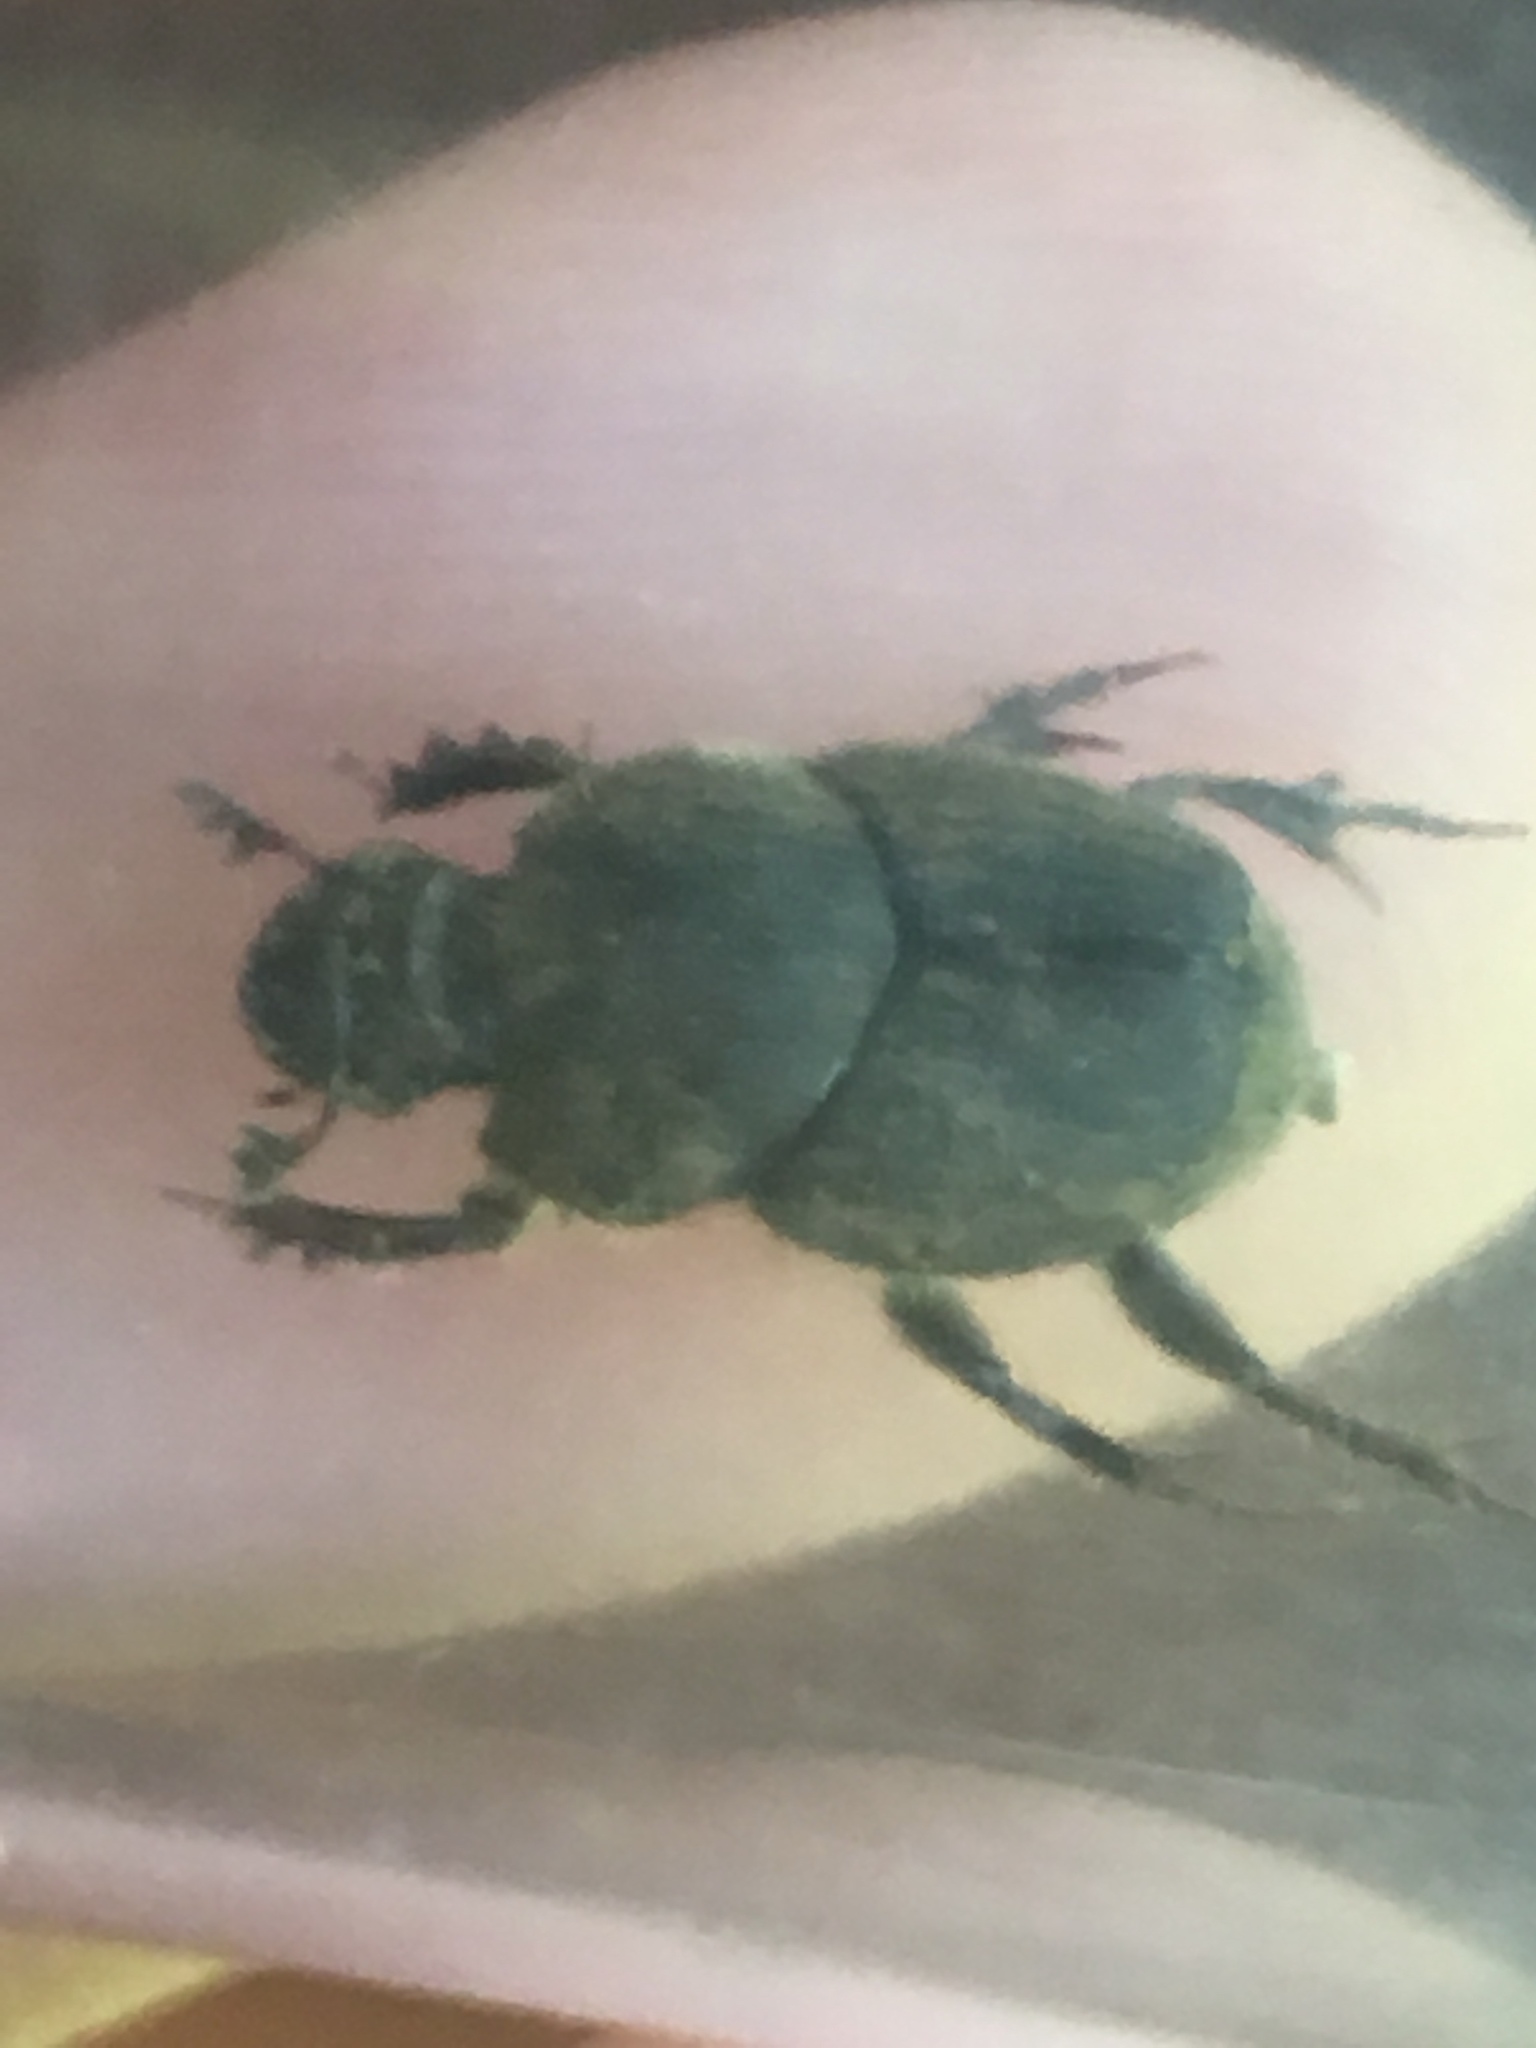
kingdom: Animalia
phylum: Arthropoda
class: Insecta
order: Coleoptera
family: Scarabaeidae
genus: Onthophagus
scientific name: Onthophagus hecate
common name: Scooped scarab
